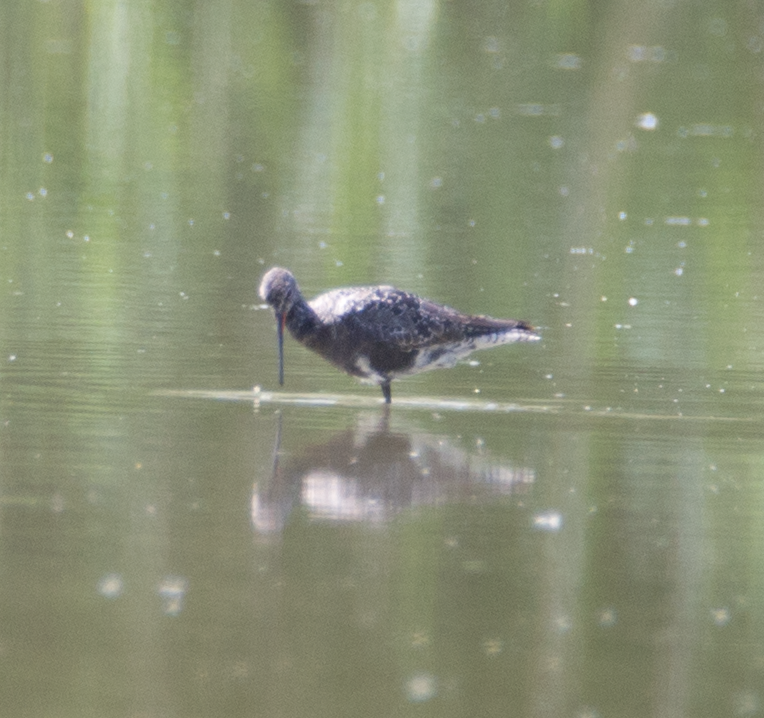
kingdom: Animalia
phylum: Chordata
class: Aves
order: Charadriiformes
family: Scolopacidae
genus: Tringa
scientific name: Tringa erythropus
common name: Spotted redshank
